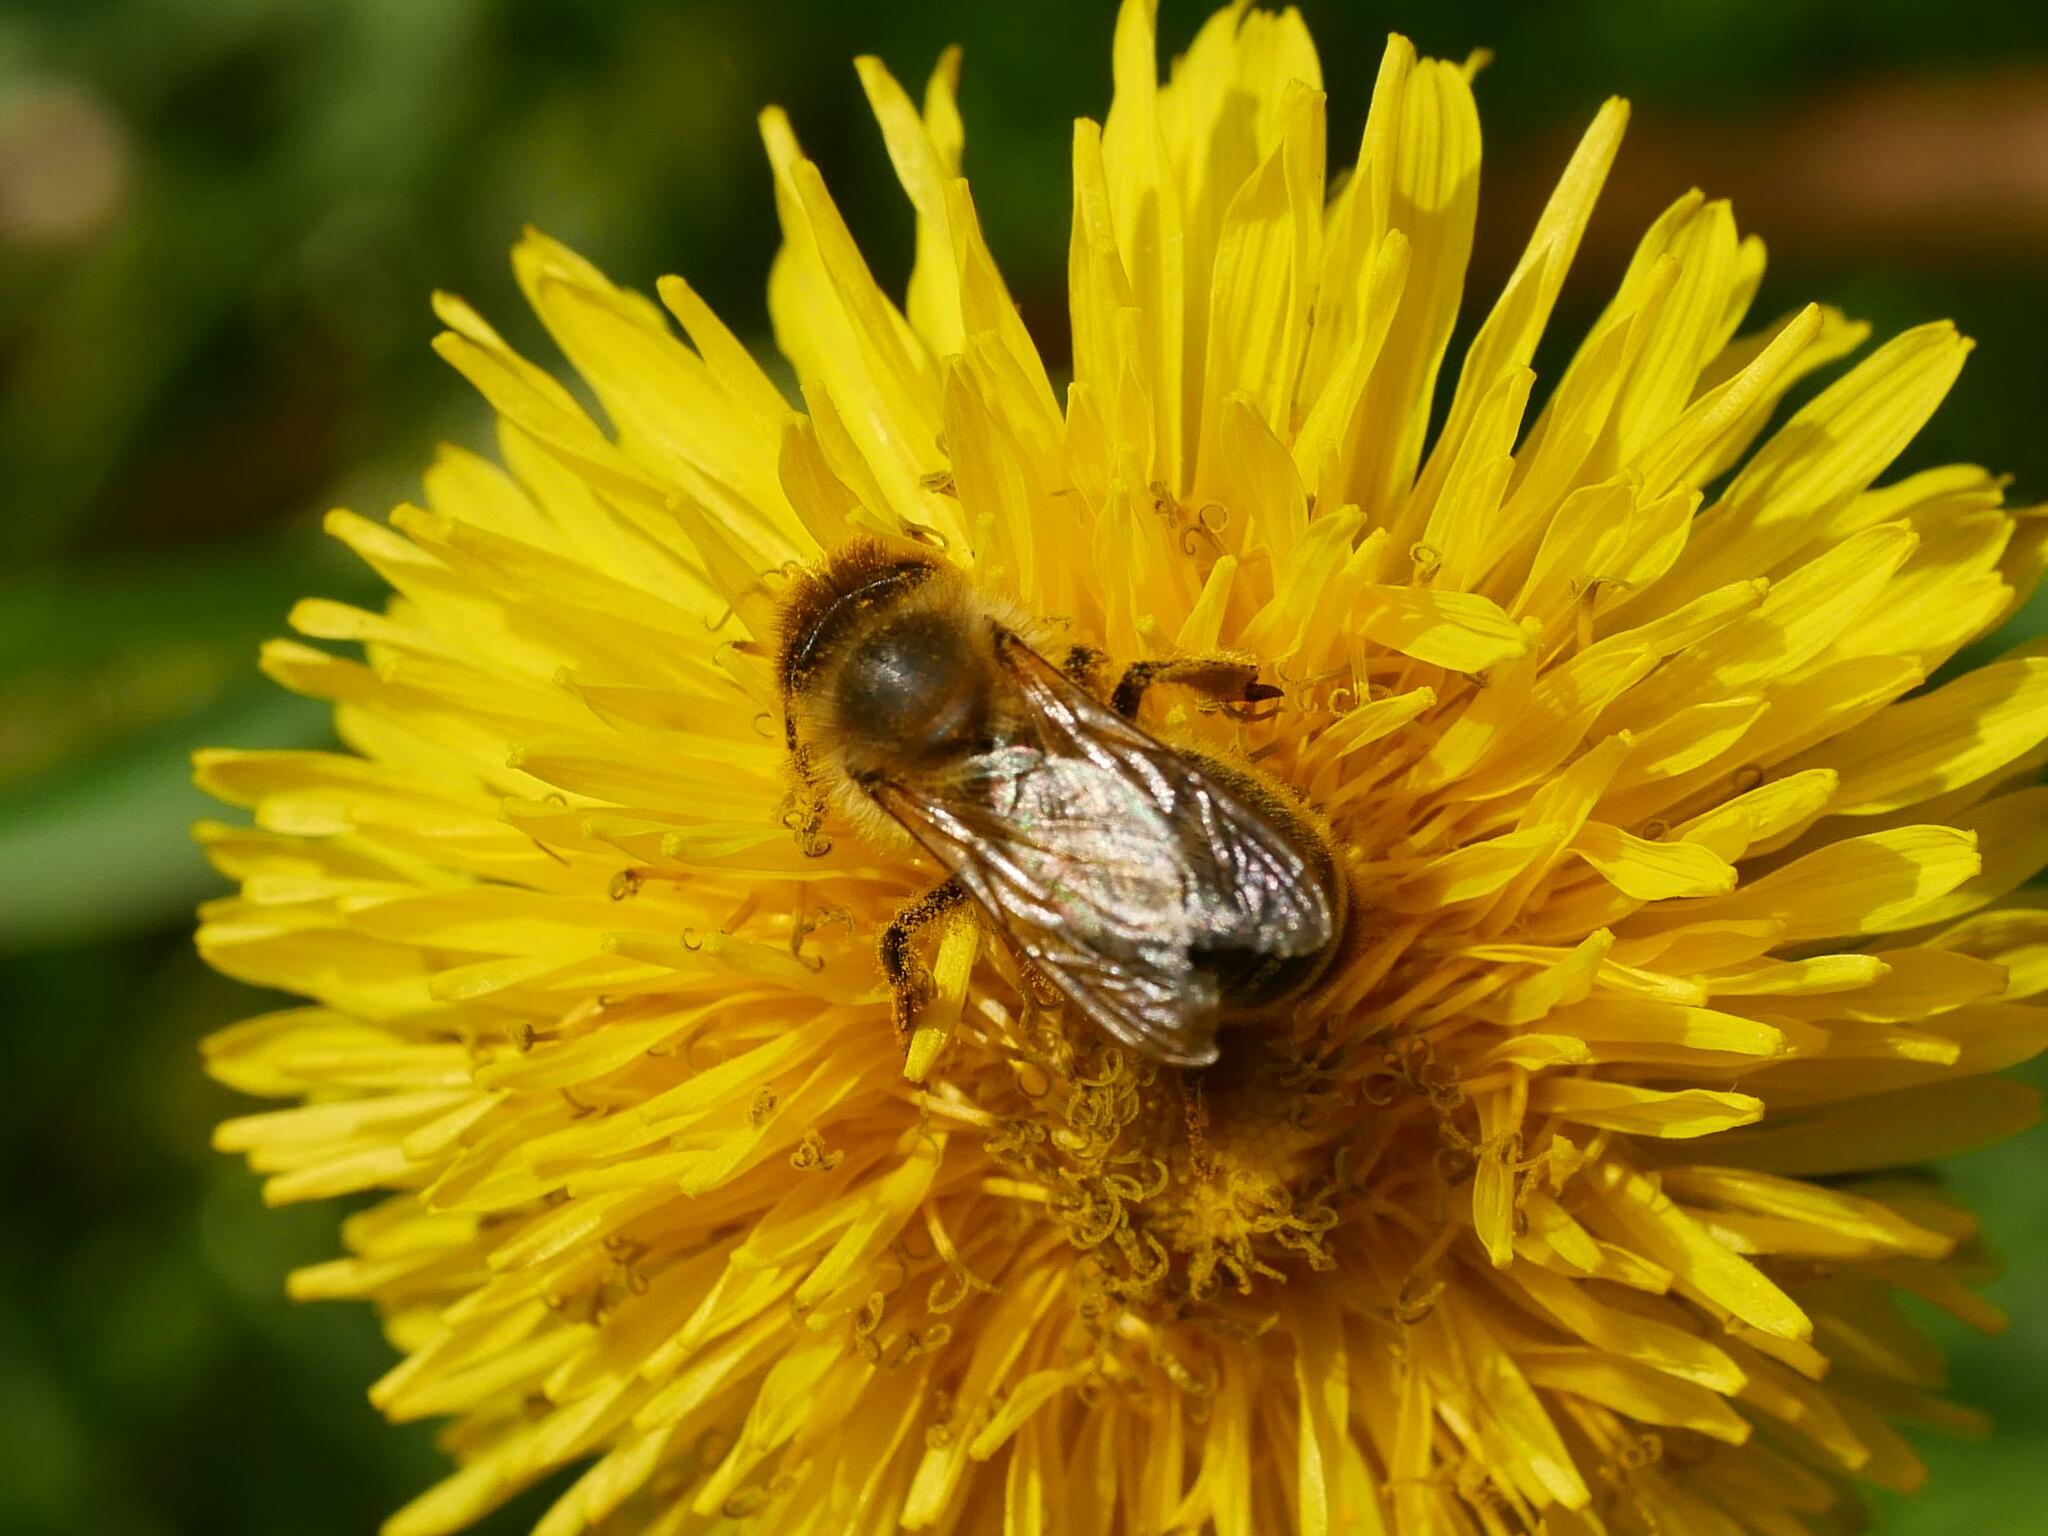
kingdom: Animalia
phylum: Arthropoda
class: Insecta
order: Hymenoptera
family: Apidae
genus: Apis
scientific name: Apis mellifera
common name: Honey bee
